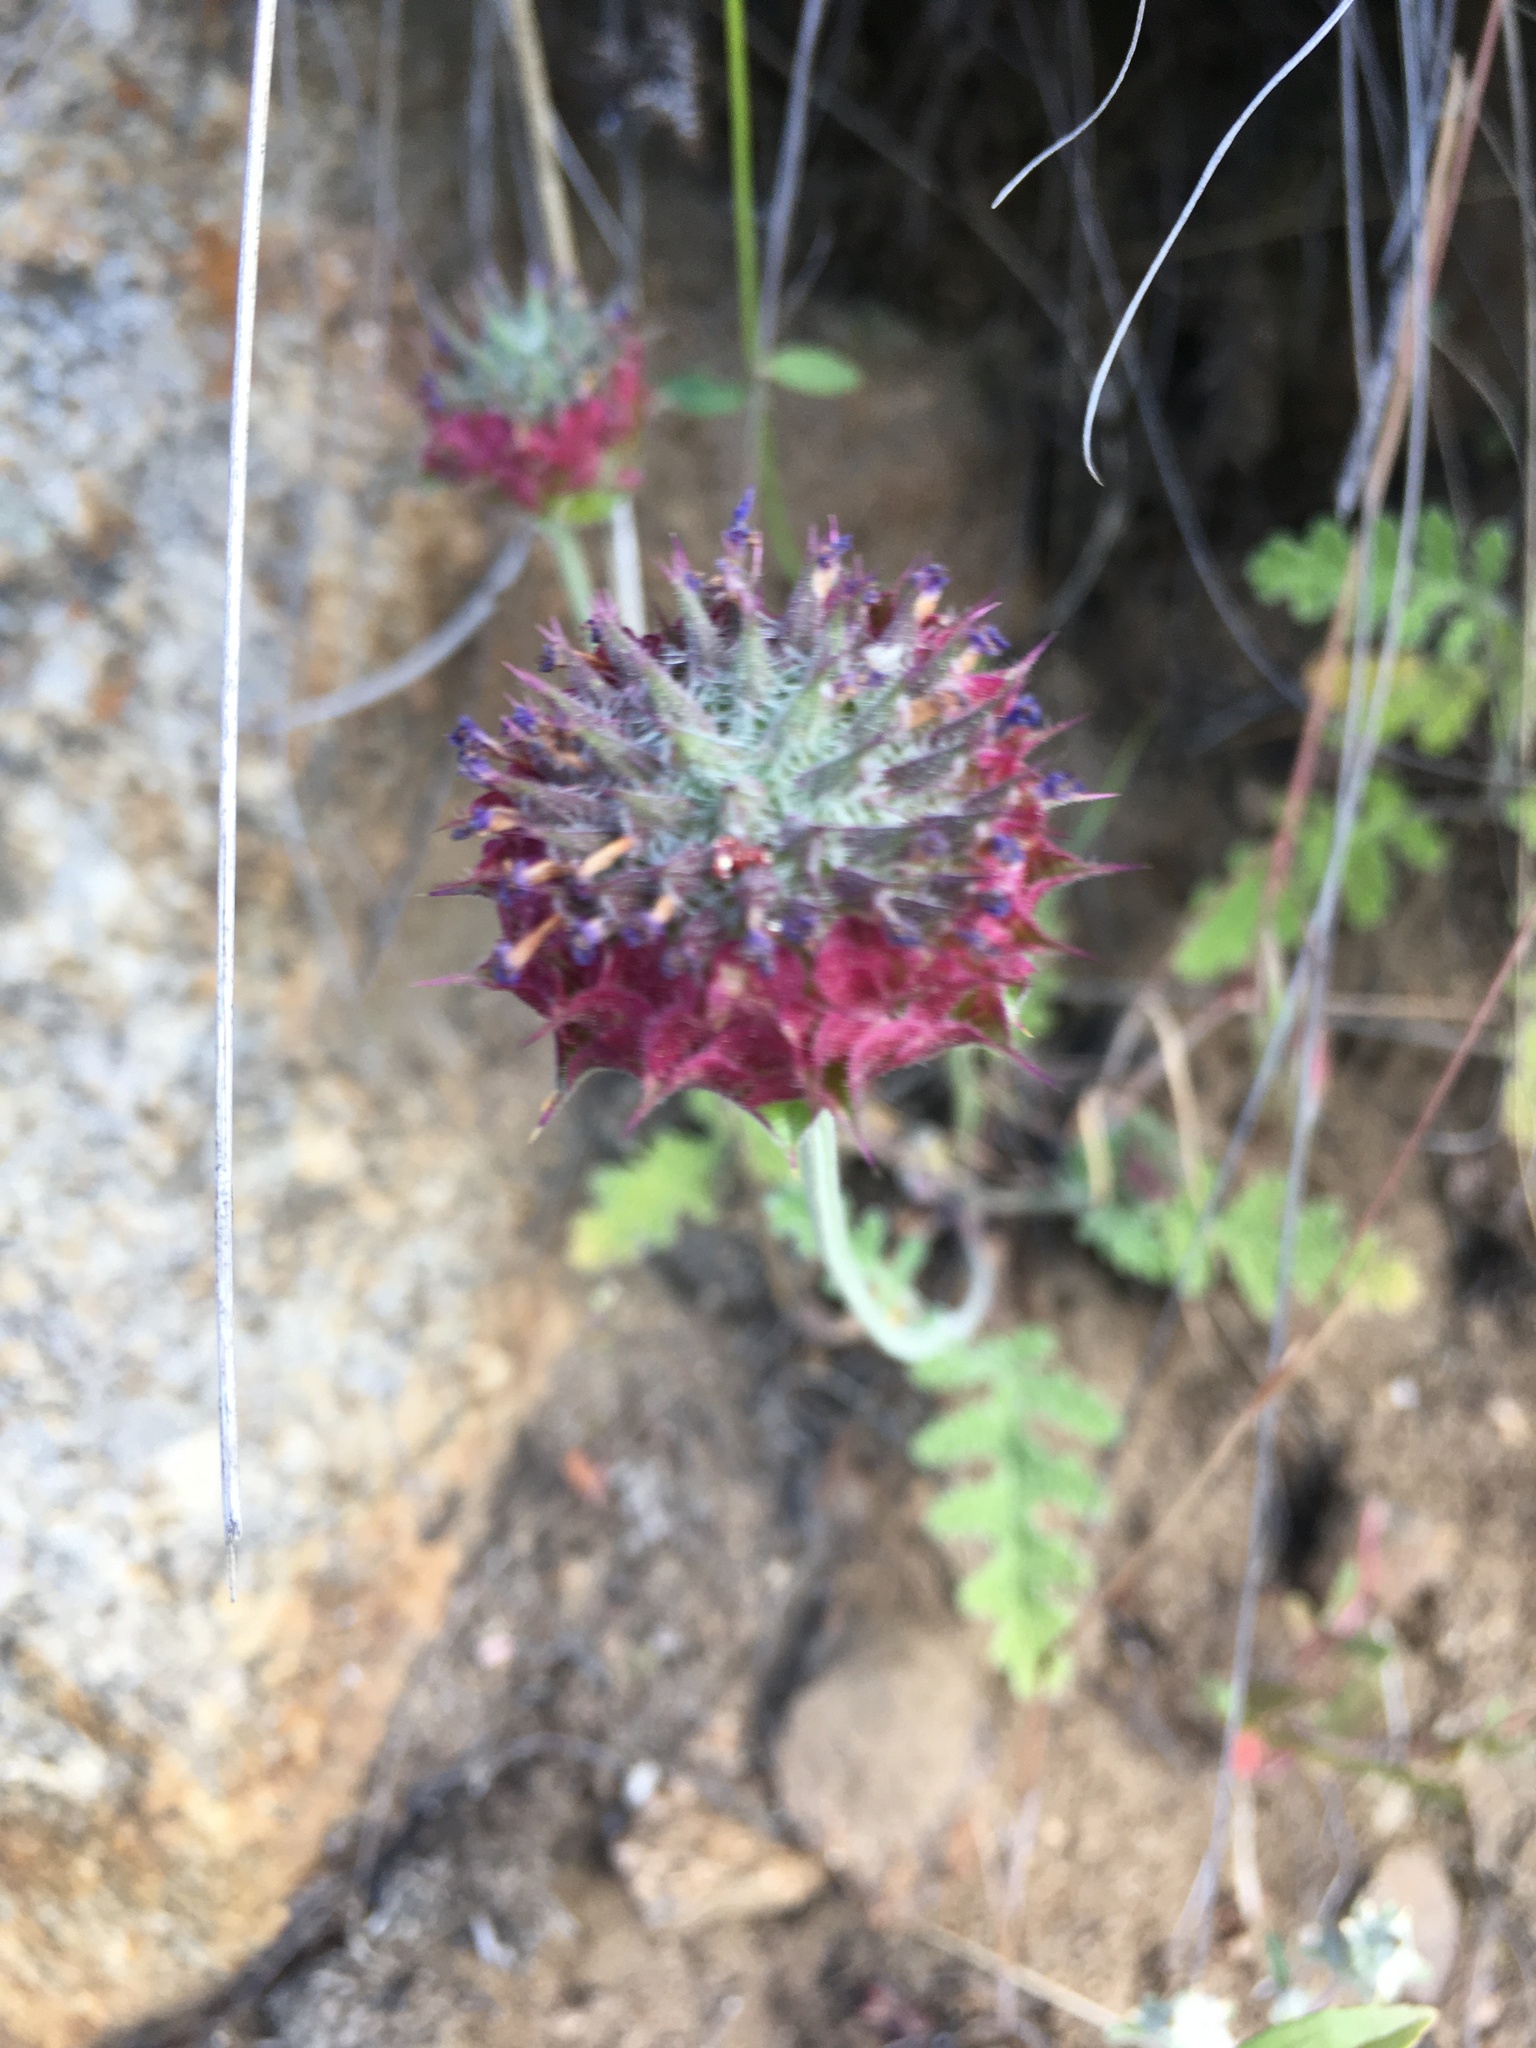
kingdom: Plantae
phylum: Tracheophyta
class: Magnoliopsida
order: Lamiales
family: Lamiaceae
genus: Salvia
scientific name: Salvia columbariae
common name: Chia
